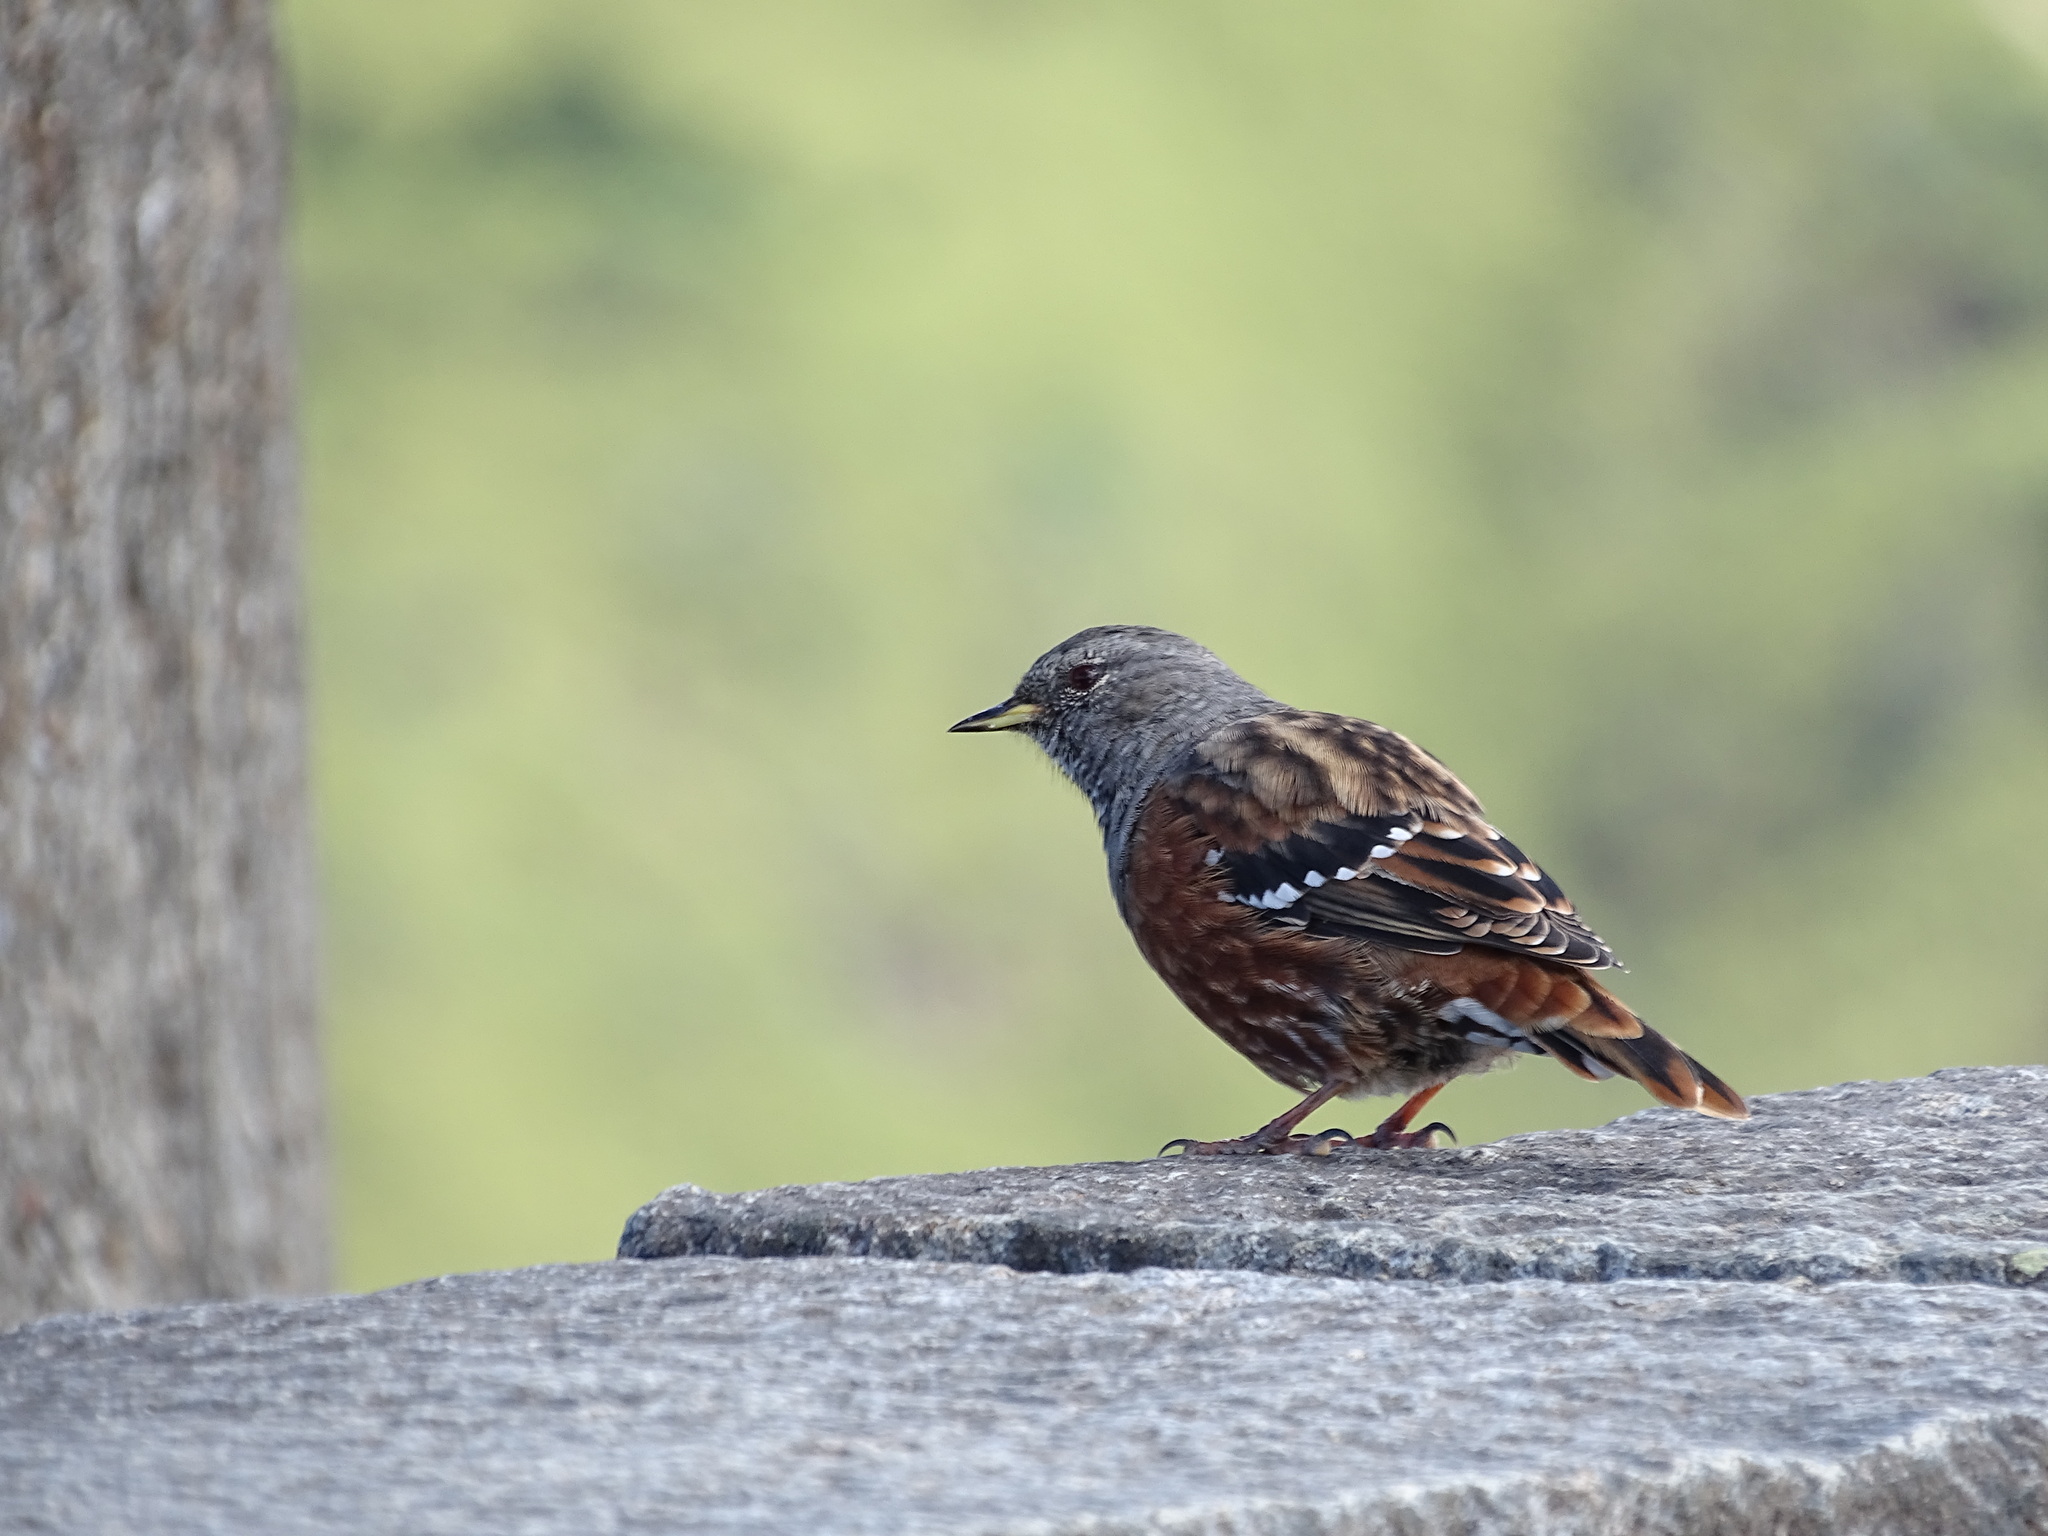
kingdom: Animalia
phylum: Chordata
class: Aves
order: Passeriformes
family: Prunellidae
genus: Prunella
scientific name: Prunella collaris
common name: Alpine accentor
